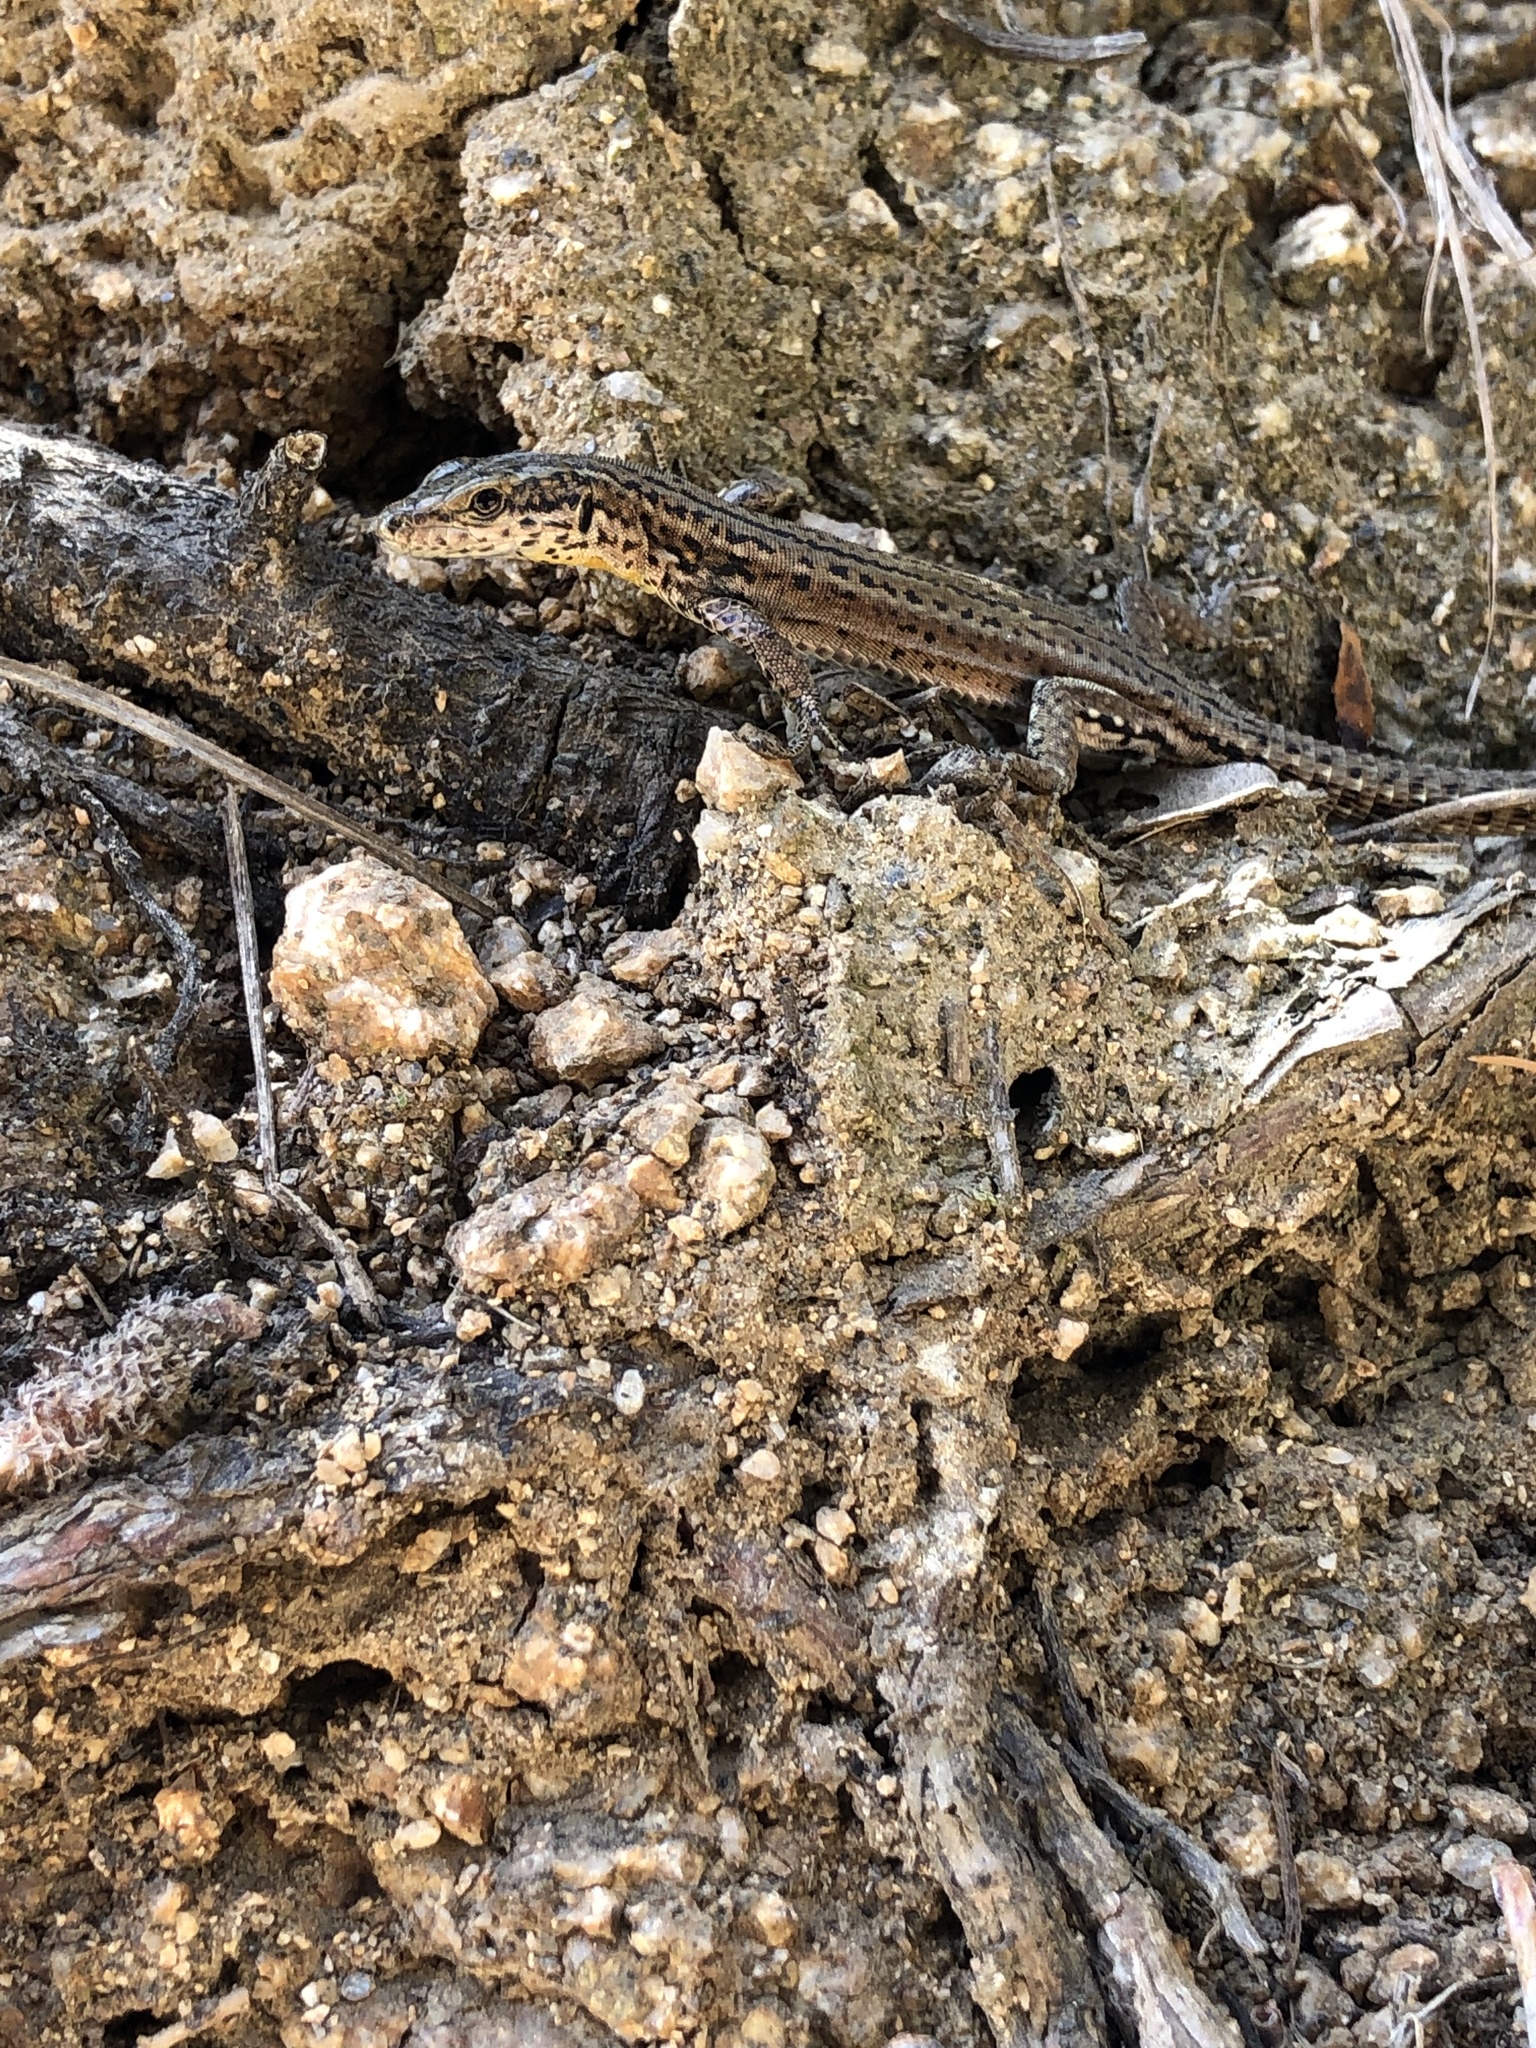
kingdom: Animalia
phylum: Chordata
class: Squamata
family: Lacertidae
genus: Podarcis
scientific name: Podarcis liolepis
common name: Catalonian wall lizard
